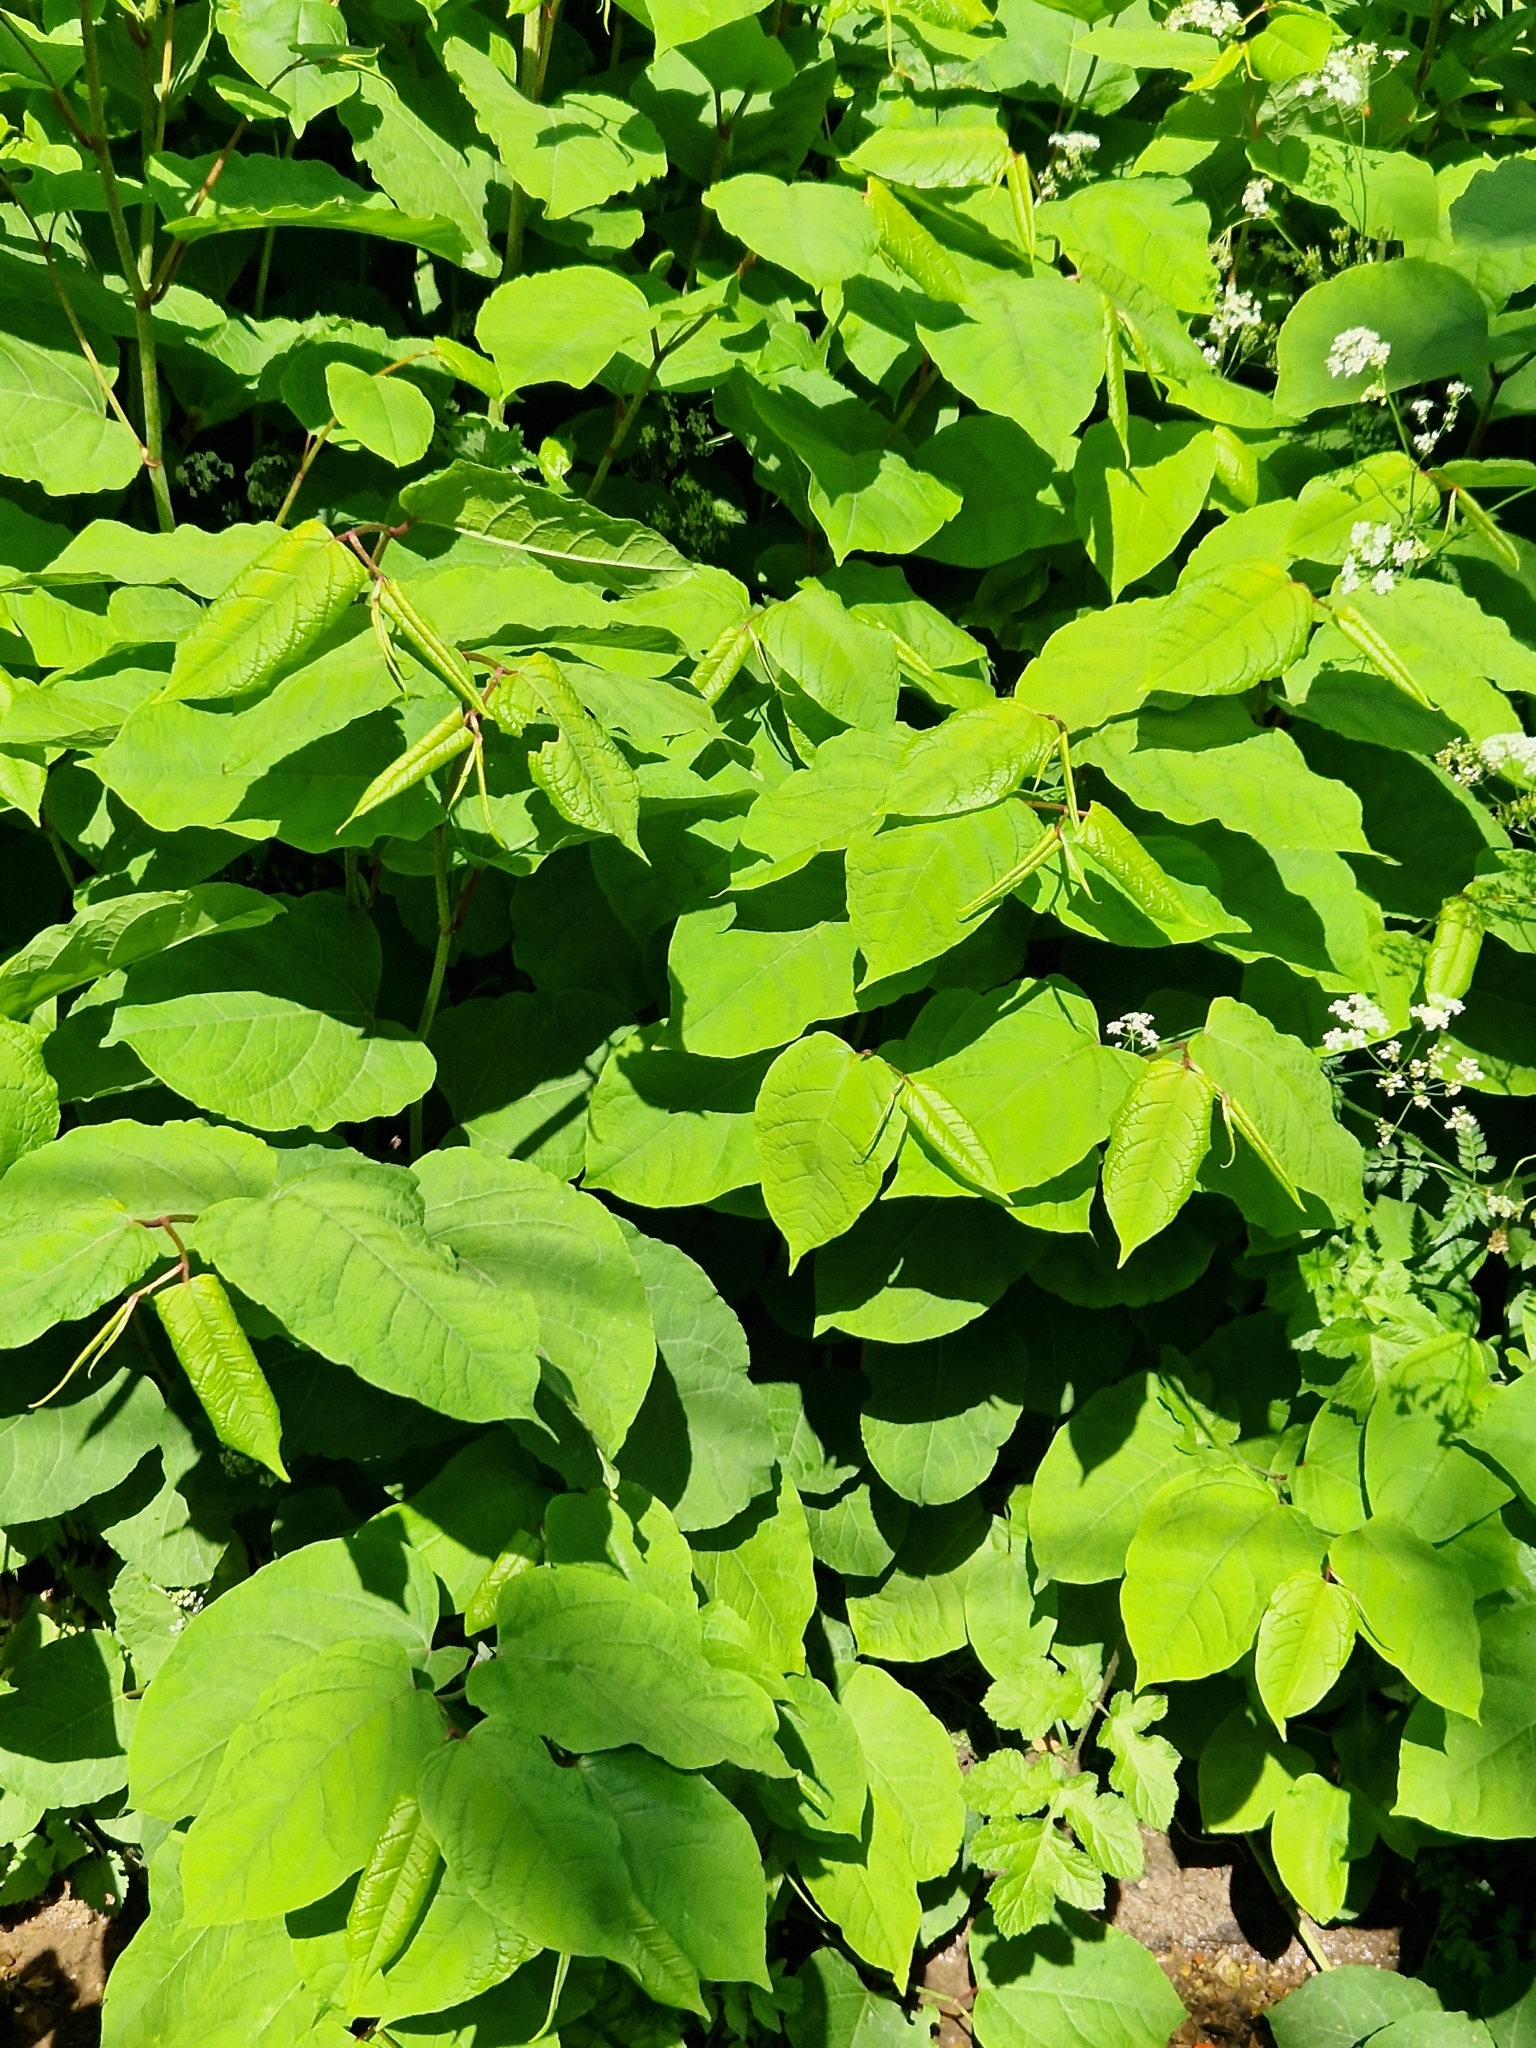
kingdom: Plantae
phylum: Tracheophyta
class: Magnoliopsida
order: Caryophyllales
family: Polygonaceae
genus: Reynoutria
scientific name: Reynoutria japonica
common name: Japanese knotweed
